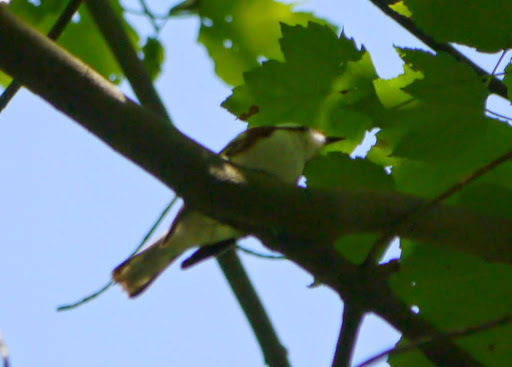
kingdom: Animalia
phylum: Chordata
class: Aves
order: Passeriformes
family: Parulidae
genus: Setophaga
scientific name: Setophaga pensylvanica
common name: Chestnut-sided warbler
